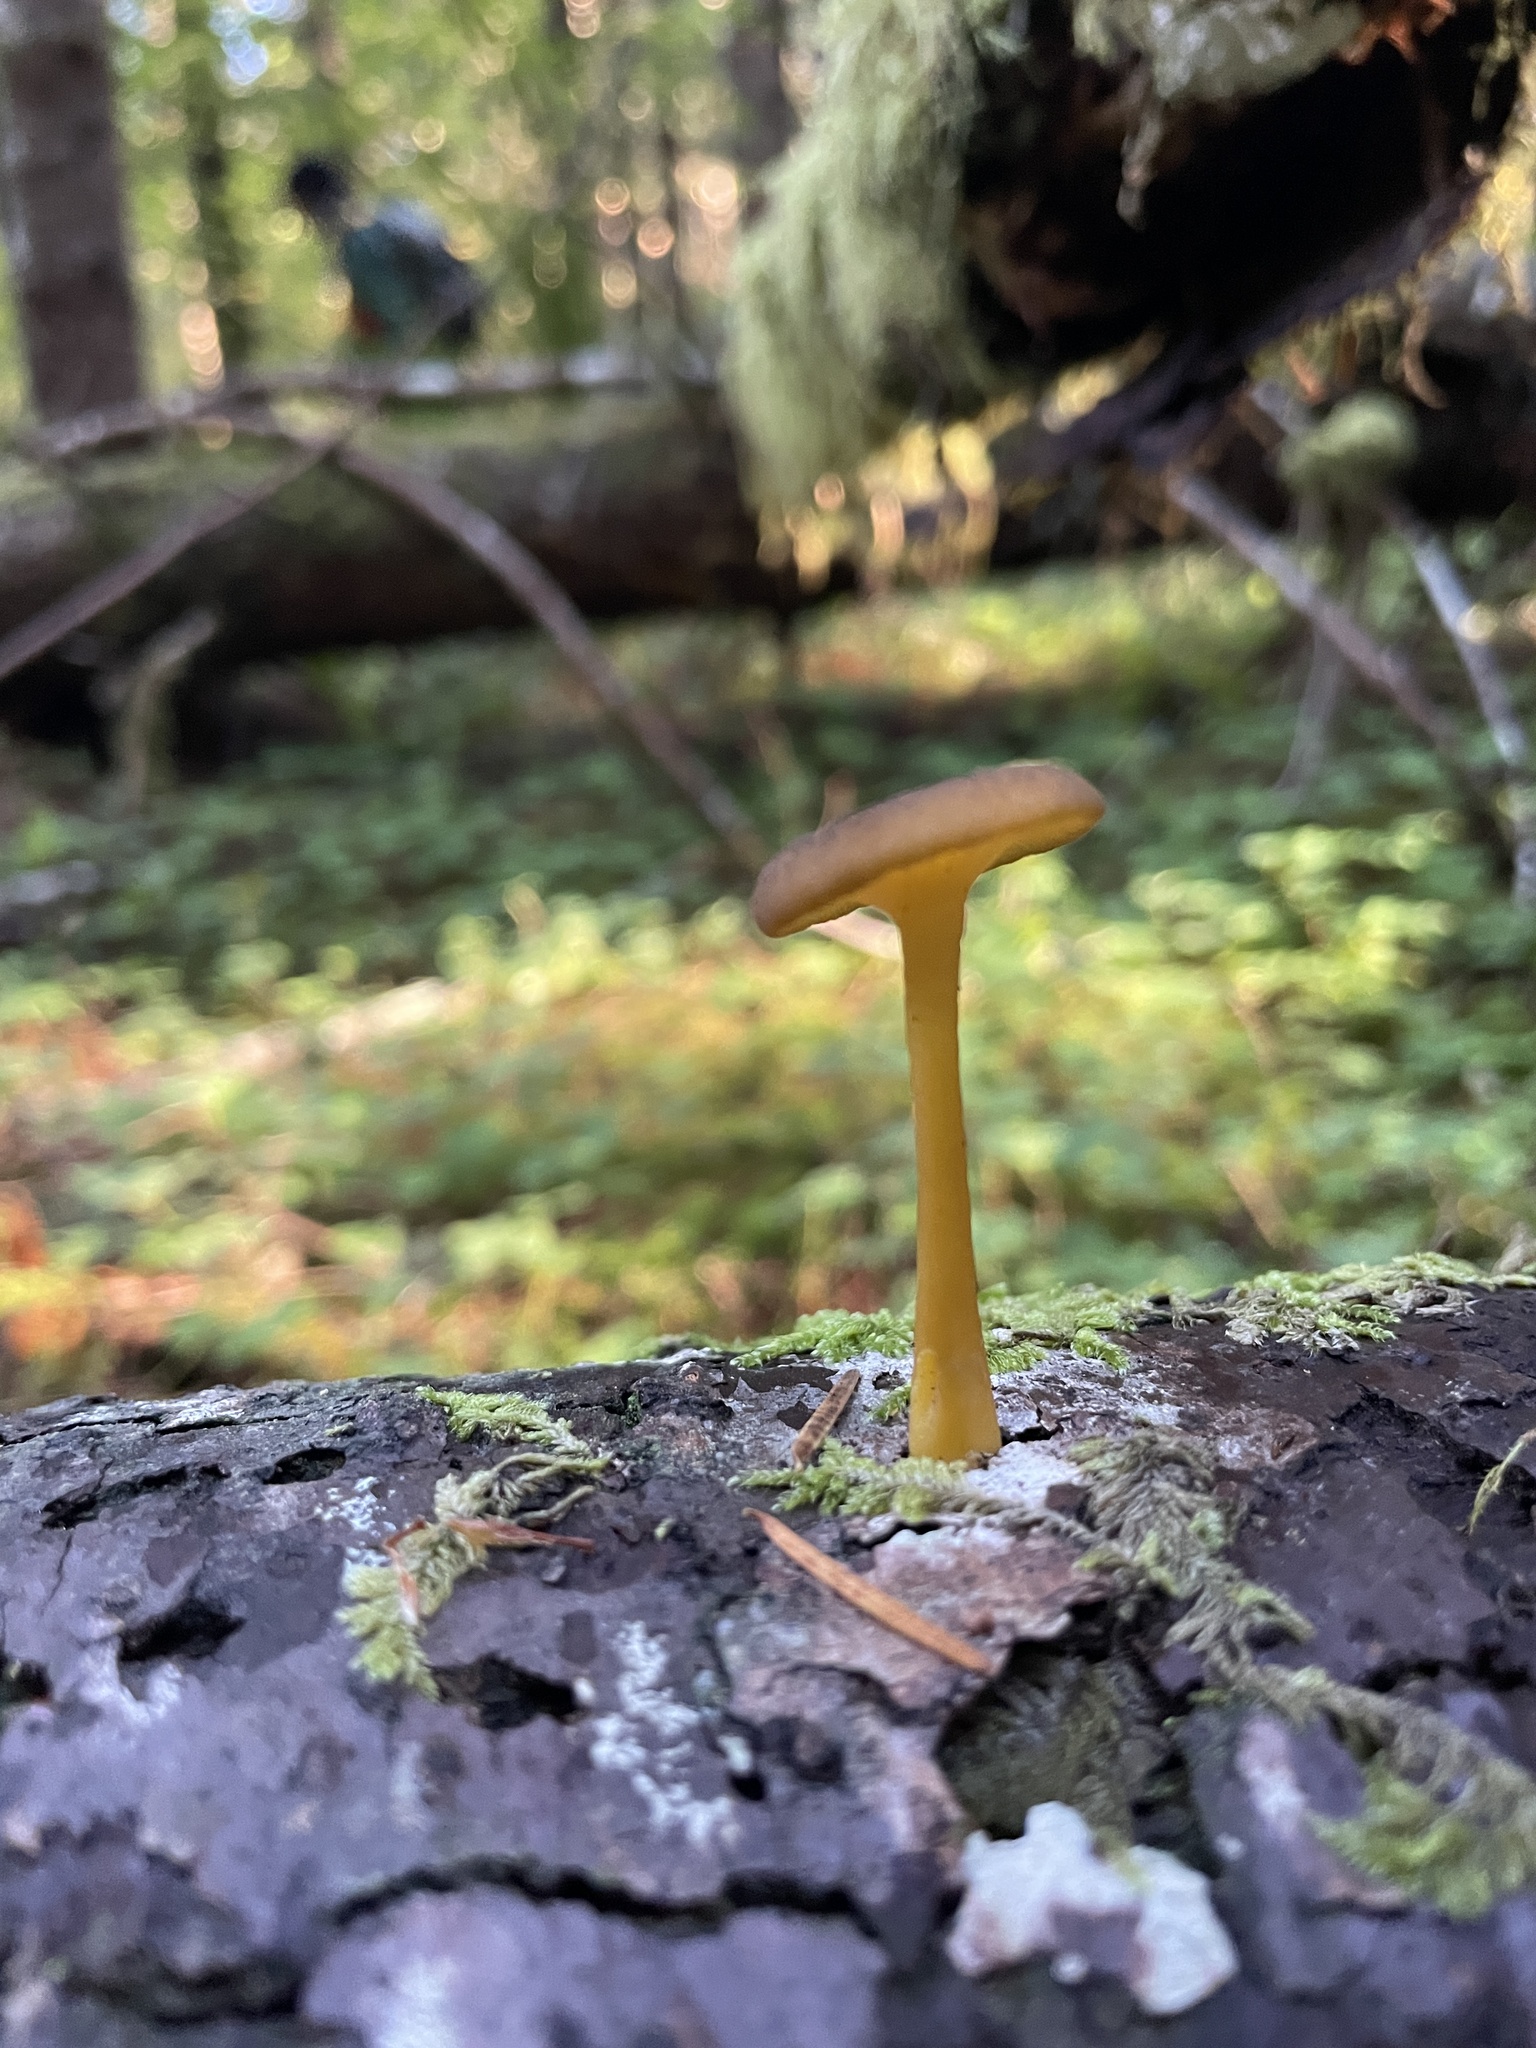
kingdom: Fungi
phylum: Basidiomycota
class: Agaricomycetes
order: Agaricales
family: Hygrophoraceae
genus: Chrysomphalina
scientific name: Chrysomphalina chrysophylla
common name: Golden navel
